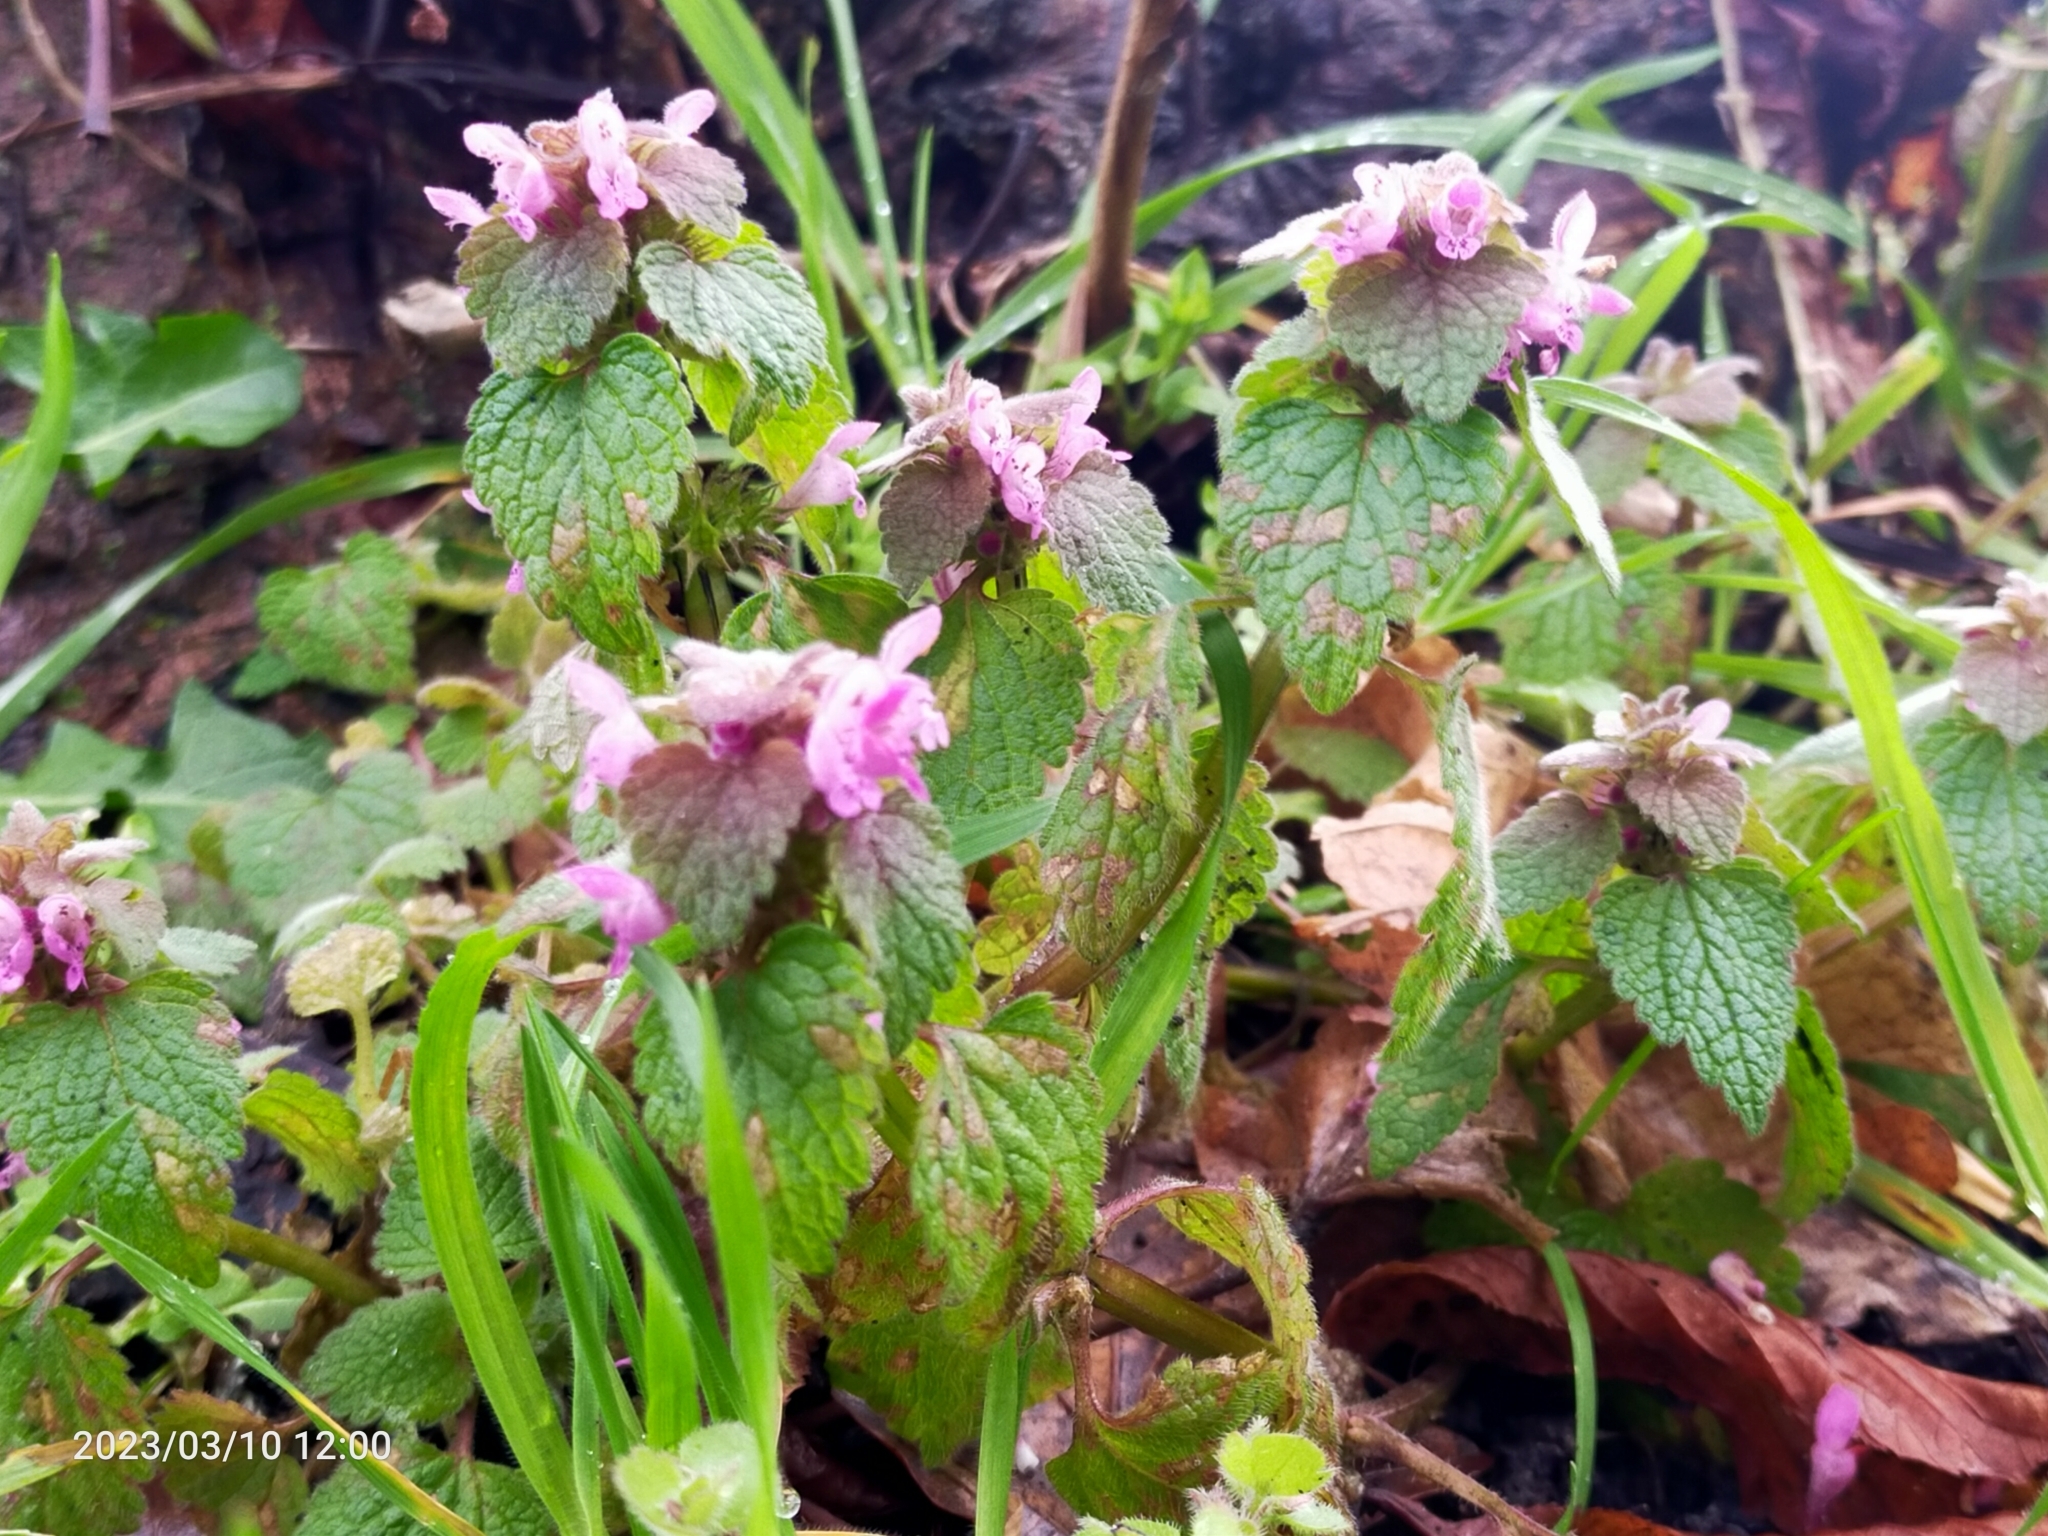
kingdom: Plantae
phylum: Tracheophyta
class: Magnoliopsida
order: Lamiales
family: Lamiaceae
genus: Lamium
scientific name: Lamium purpureum
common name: Red dead-nettle
